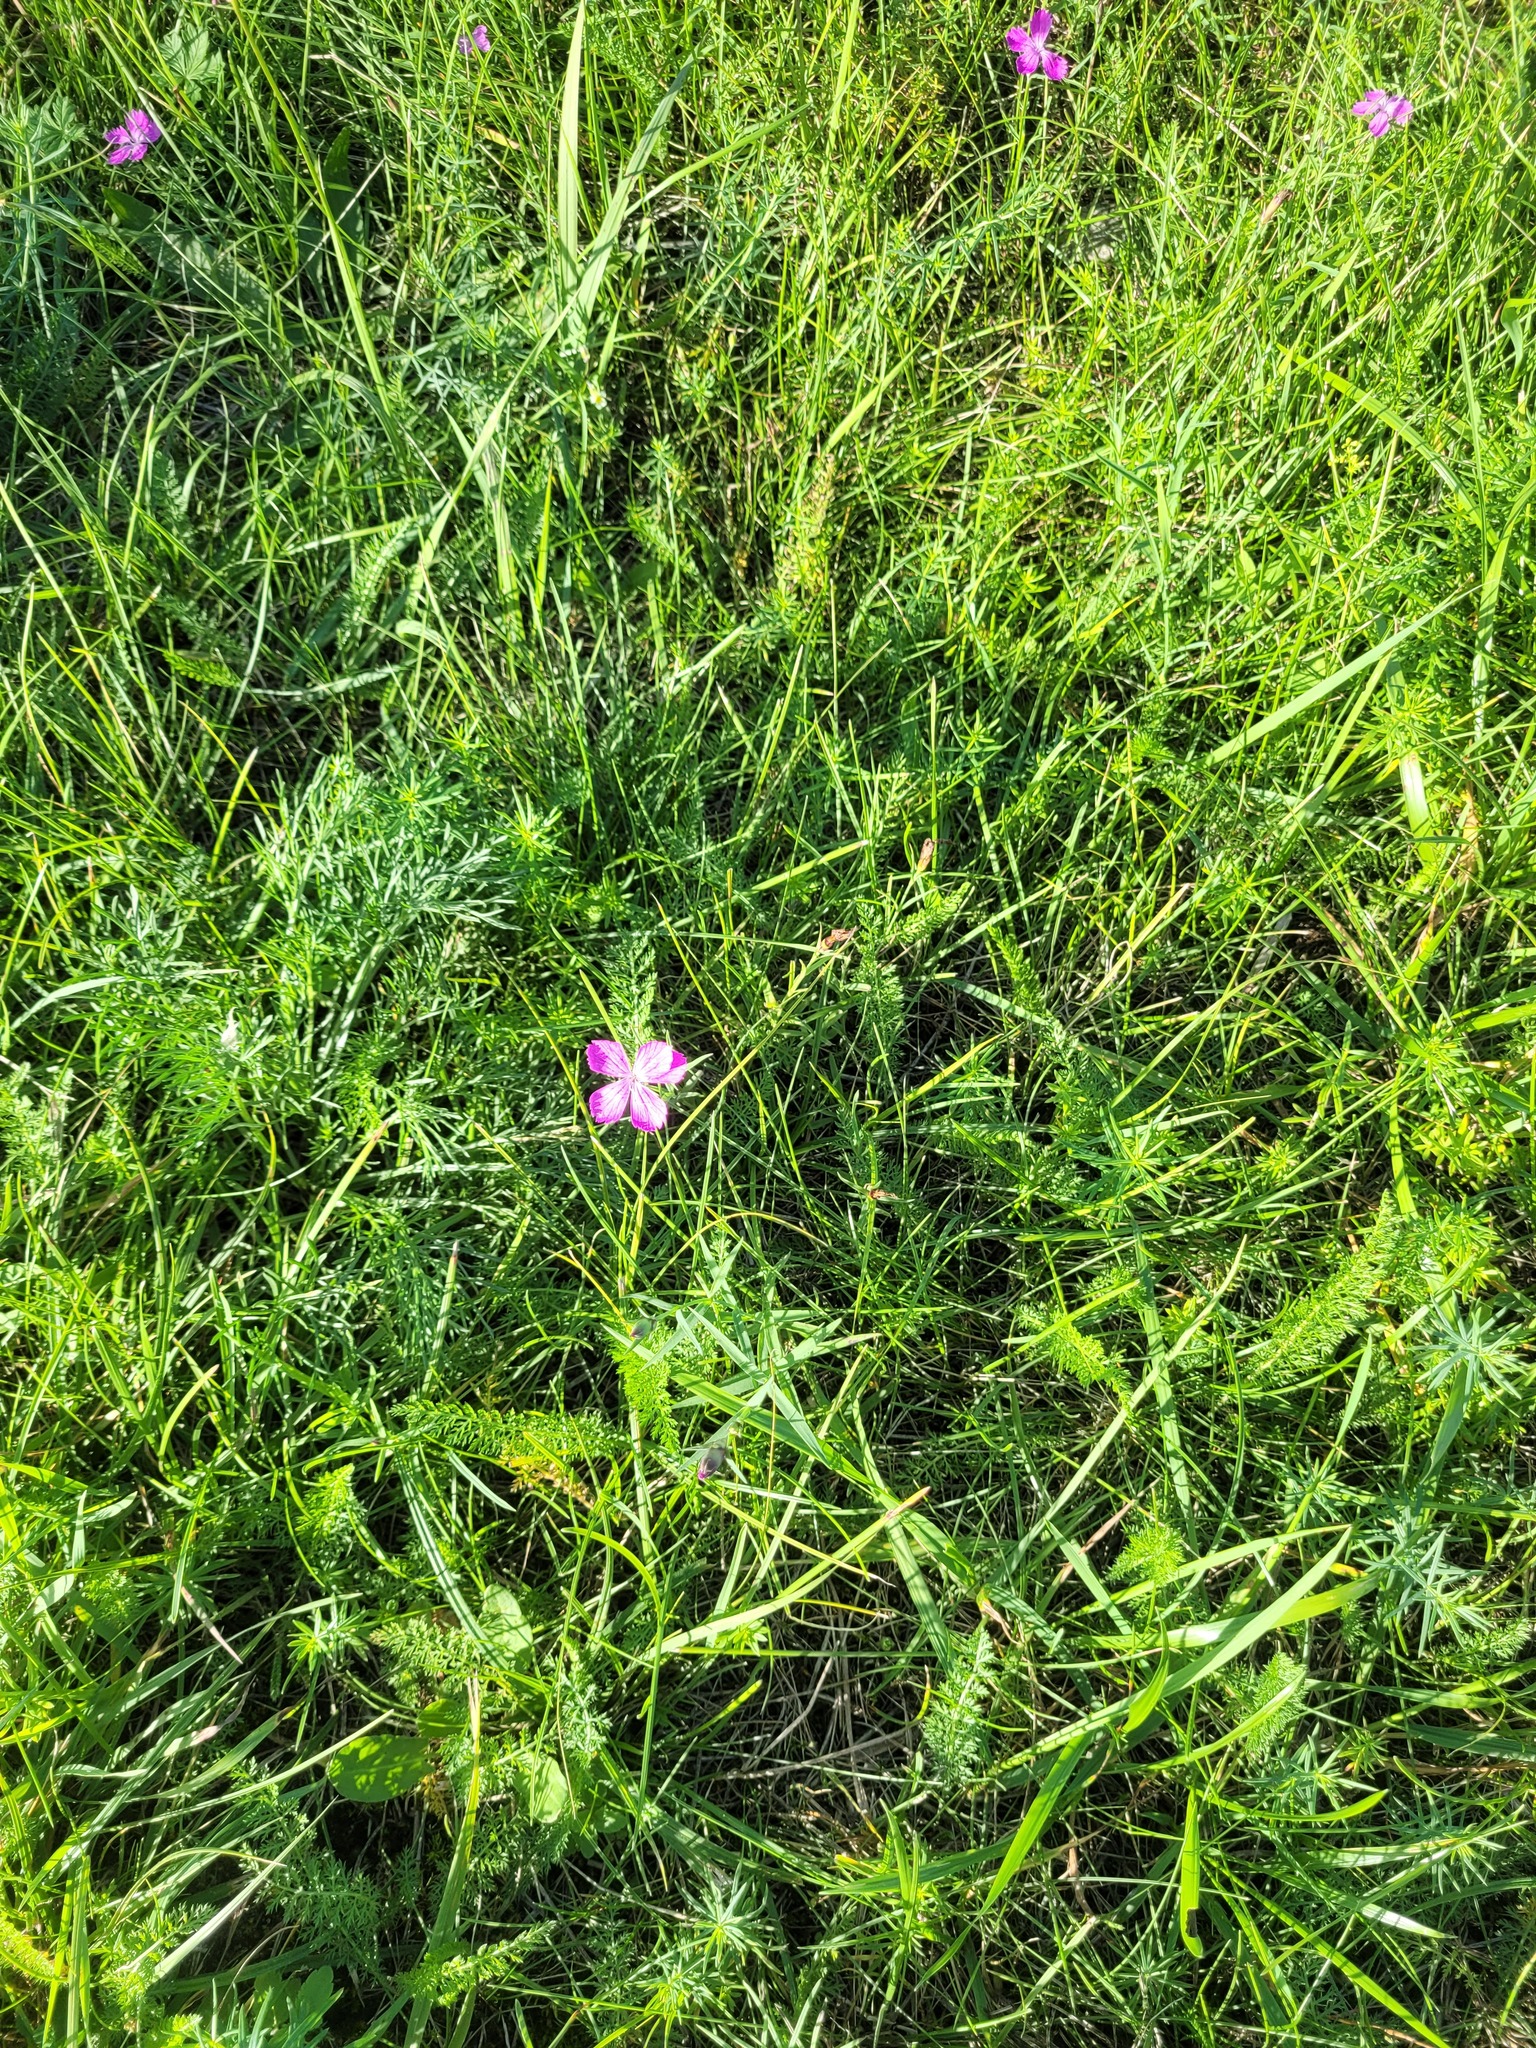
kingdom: Plantae
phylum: Tracheophyta
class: Magnoliopsida
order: Caryophyllales
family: Caryophyllaceae
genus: Dianthus
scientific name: Dianthus chinensis
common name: Rainbow pink
